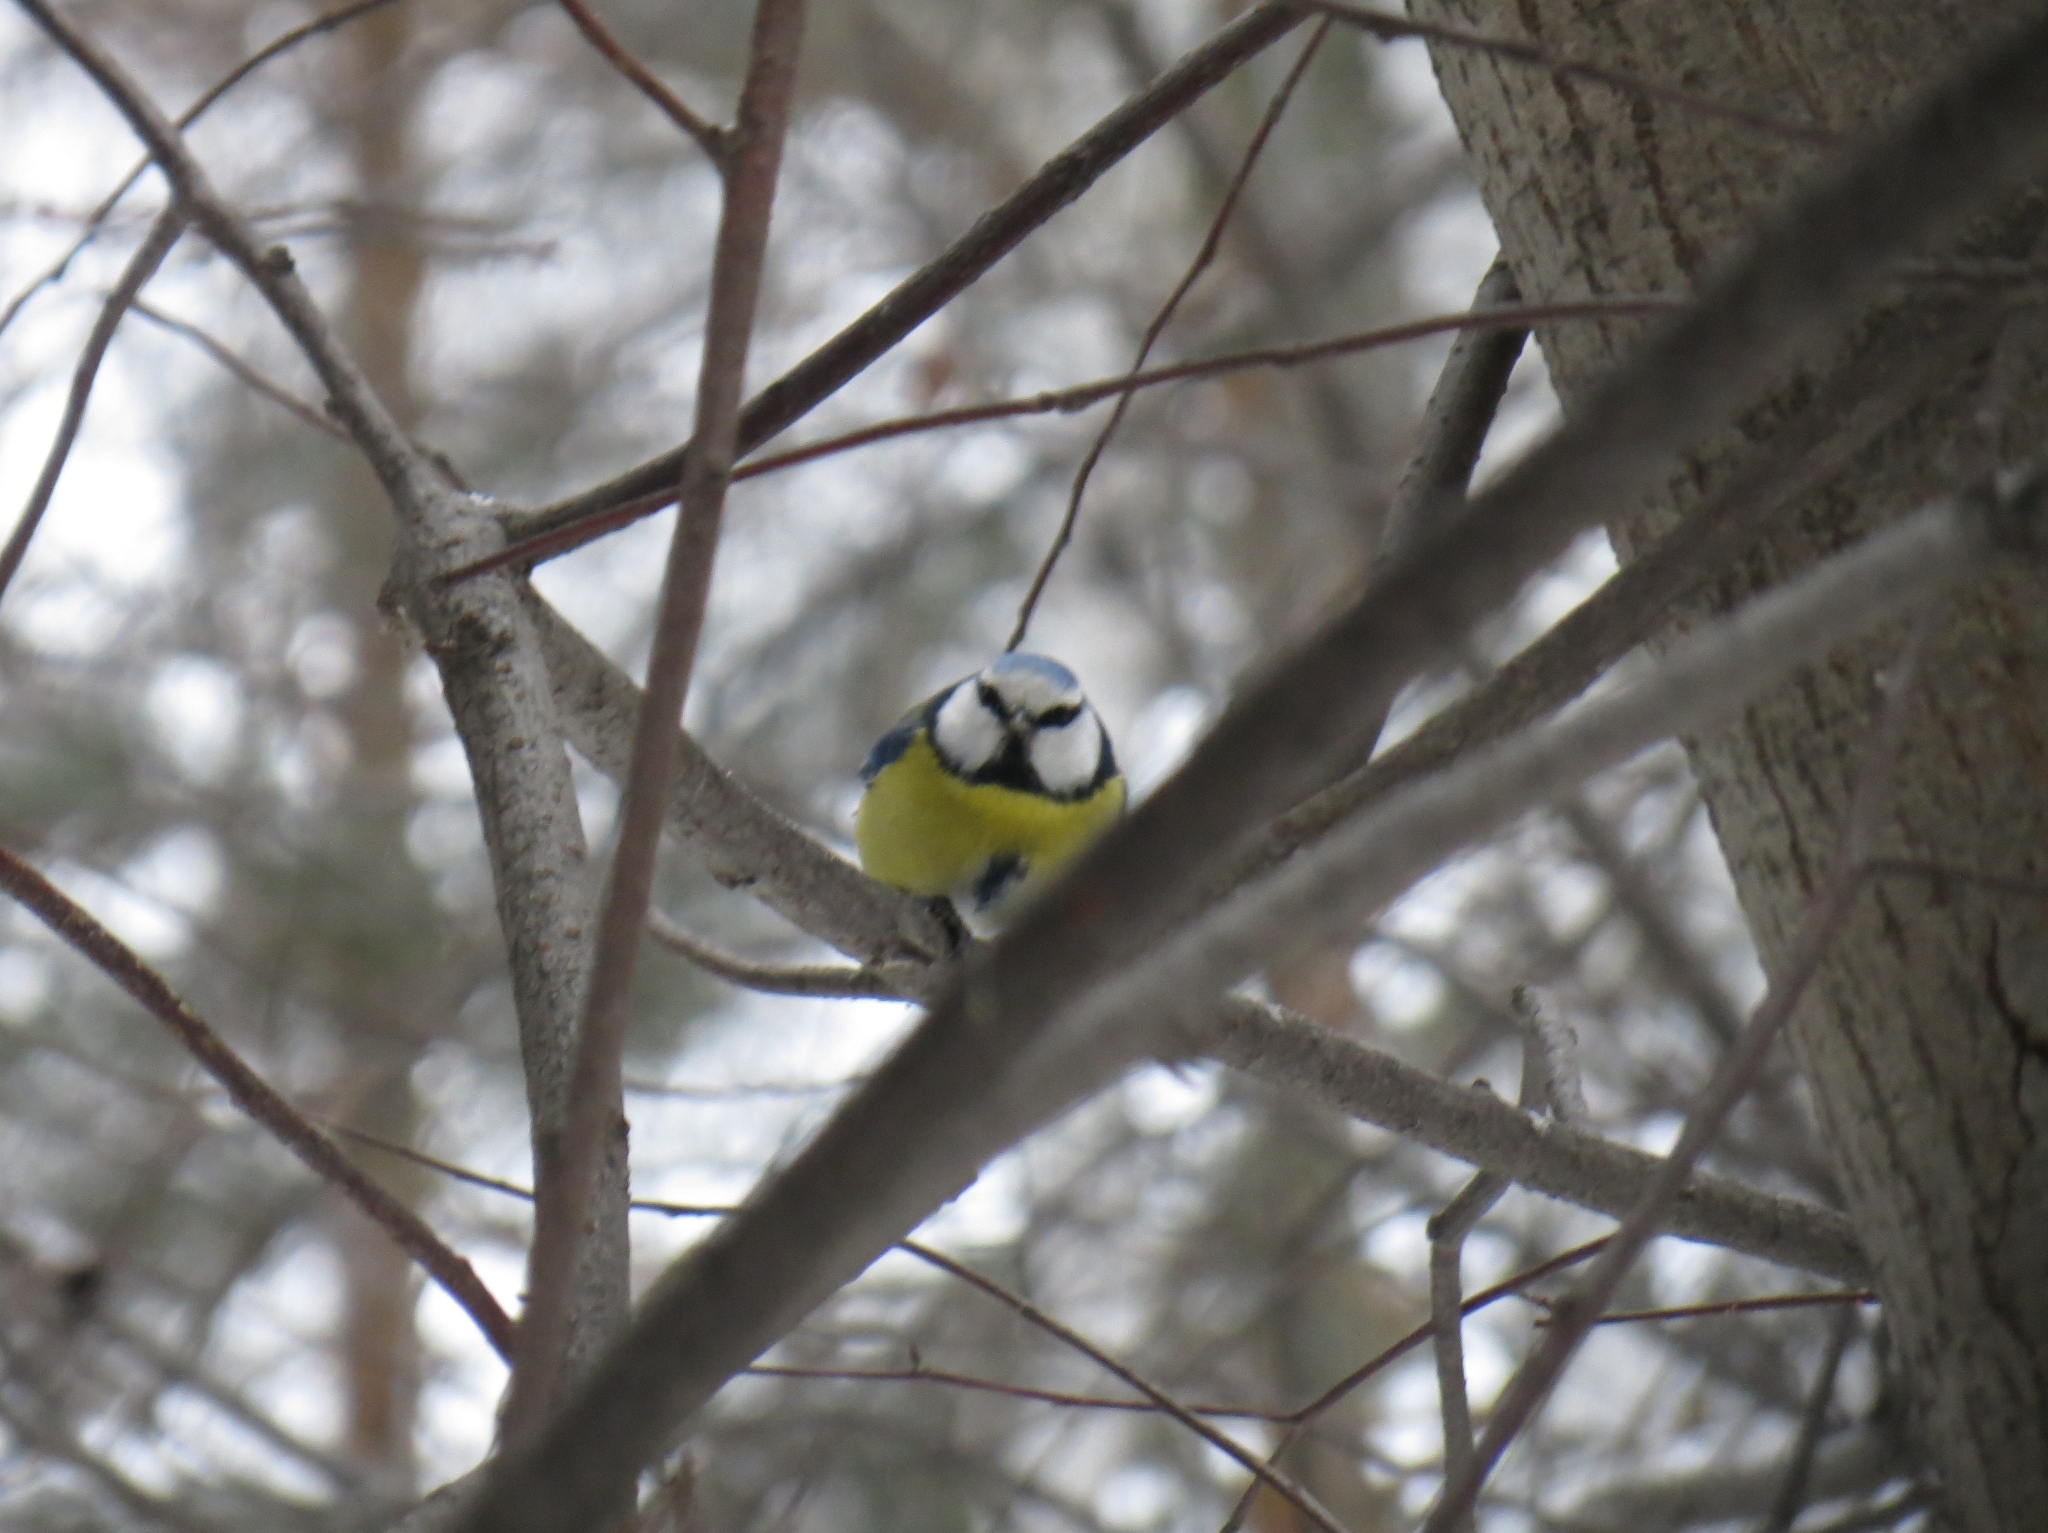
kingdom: Animalia
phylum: Chordata
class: Aves
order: Passeriformes
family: Paridae
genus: Cyanistes
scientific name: Cyanistes caeruleus
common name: Eurasian blue tit
